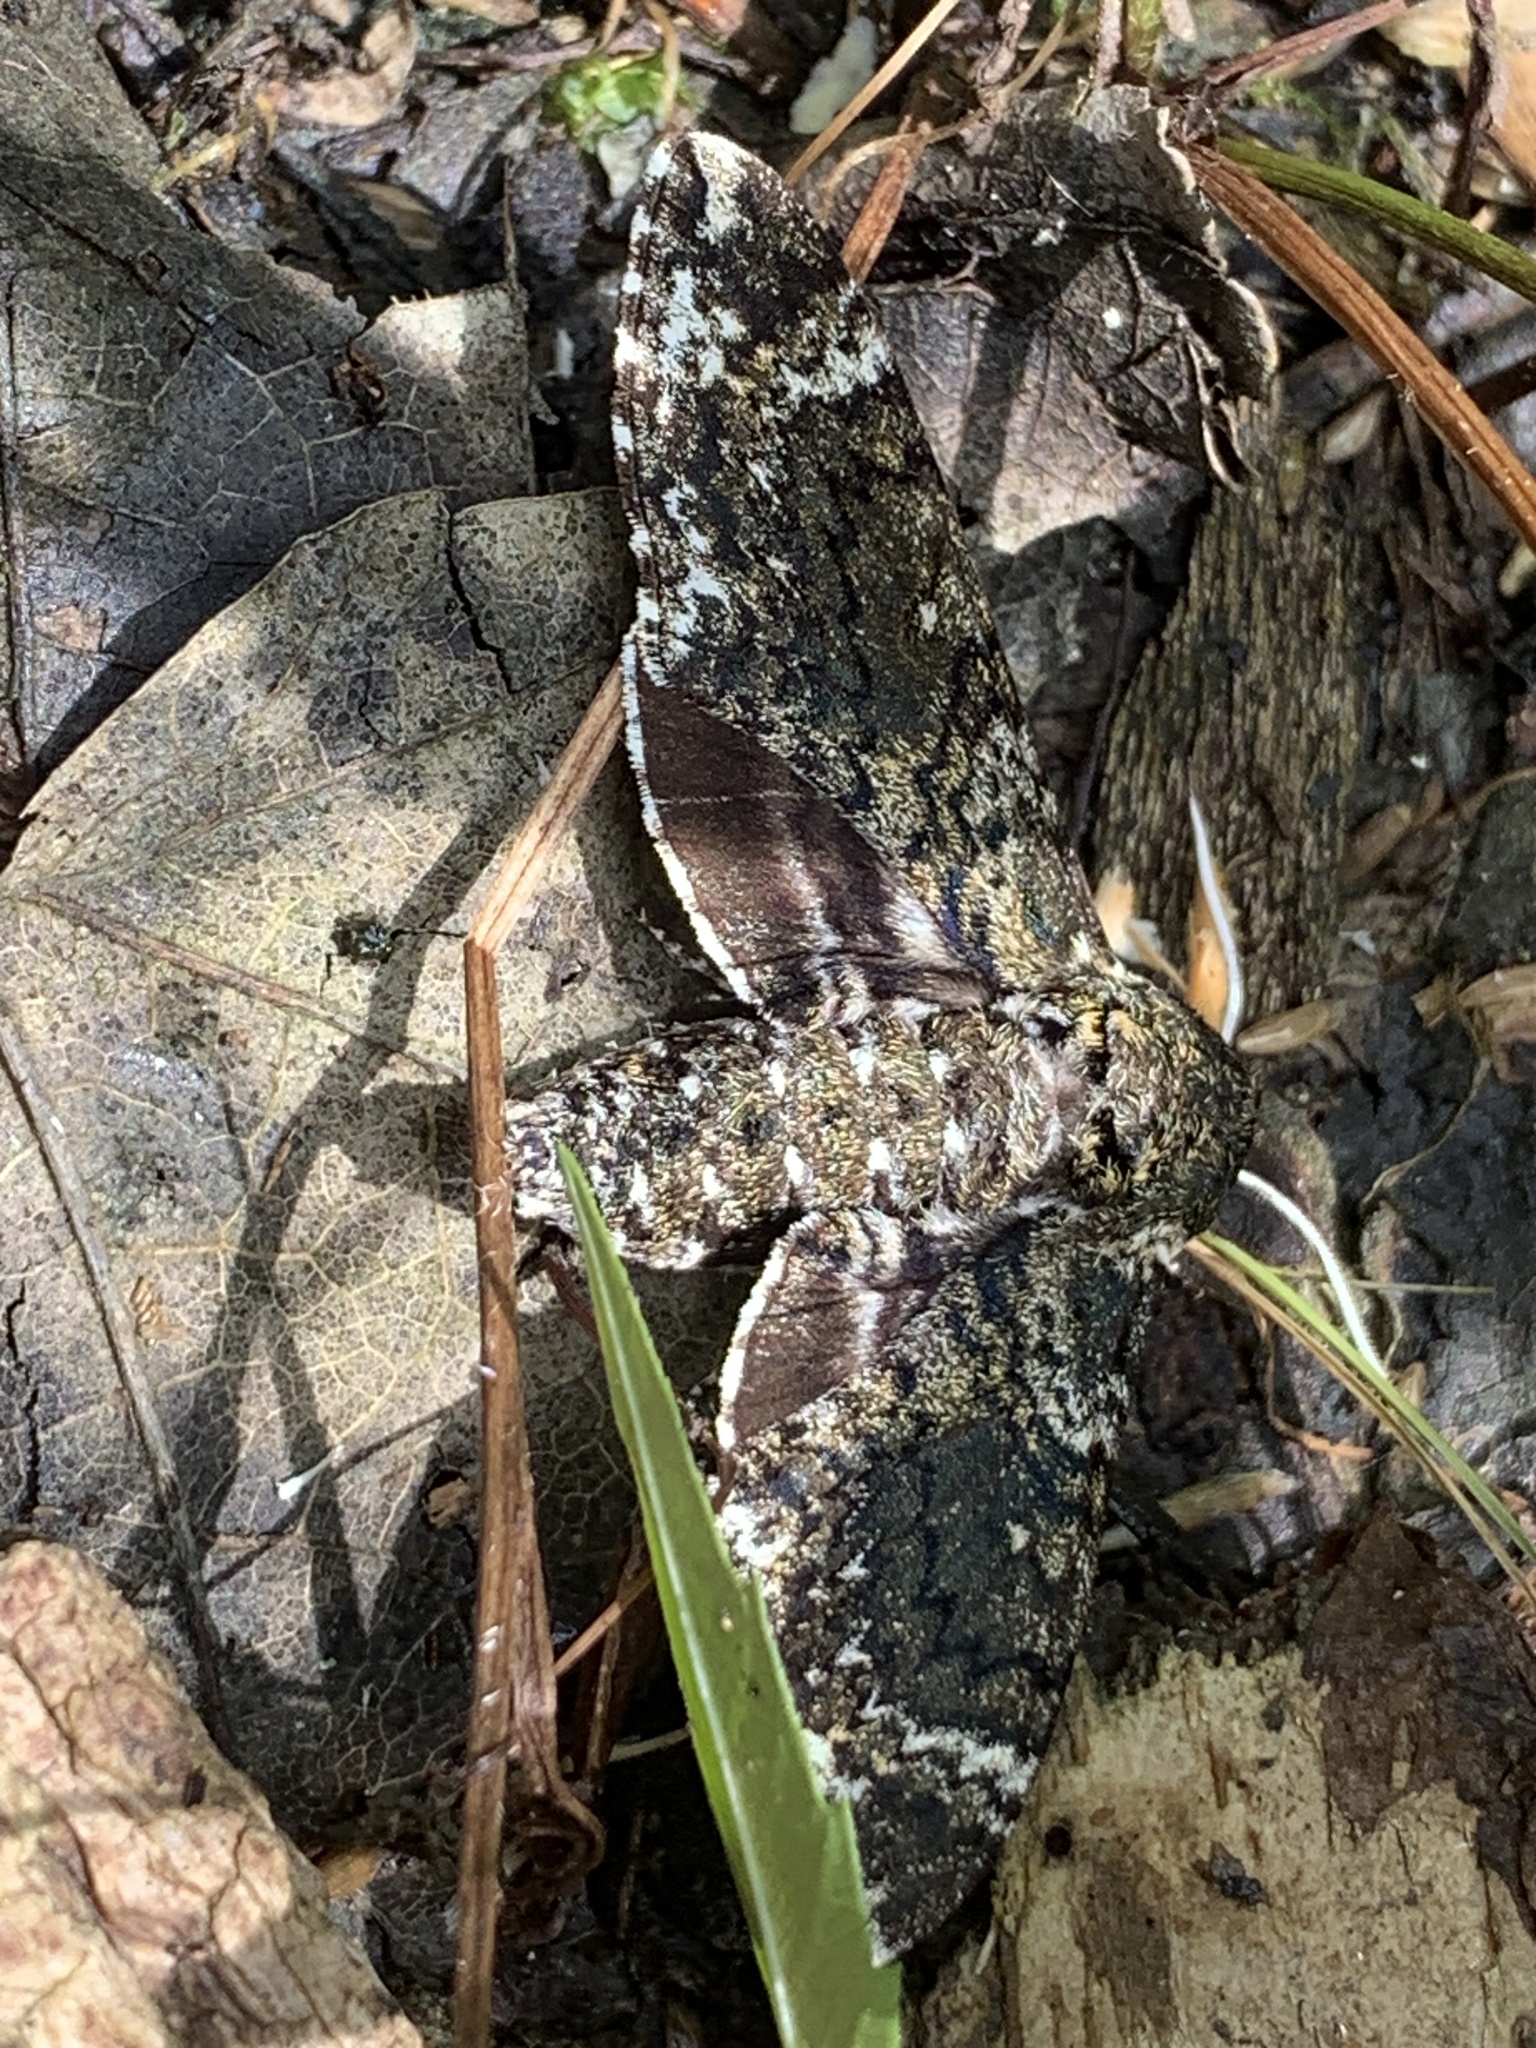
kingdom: Animalia
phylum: Arthropoda
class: Insecta
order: Lepidoptera
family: Sphingidae
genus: Dolba
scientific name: Dolba hyloeus
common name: Pawpaw sphinx
